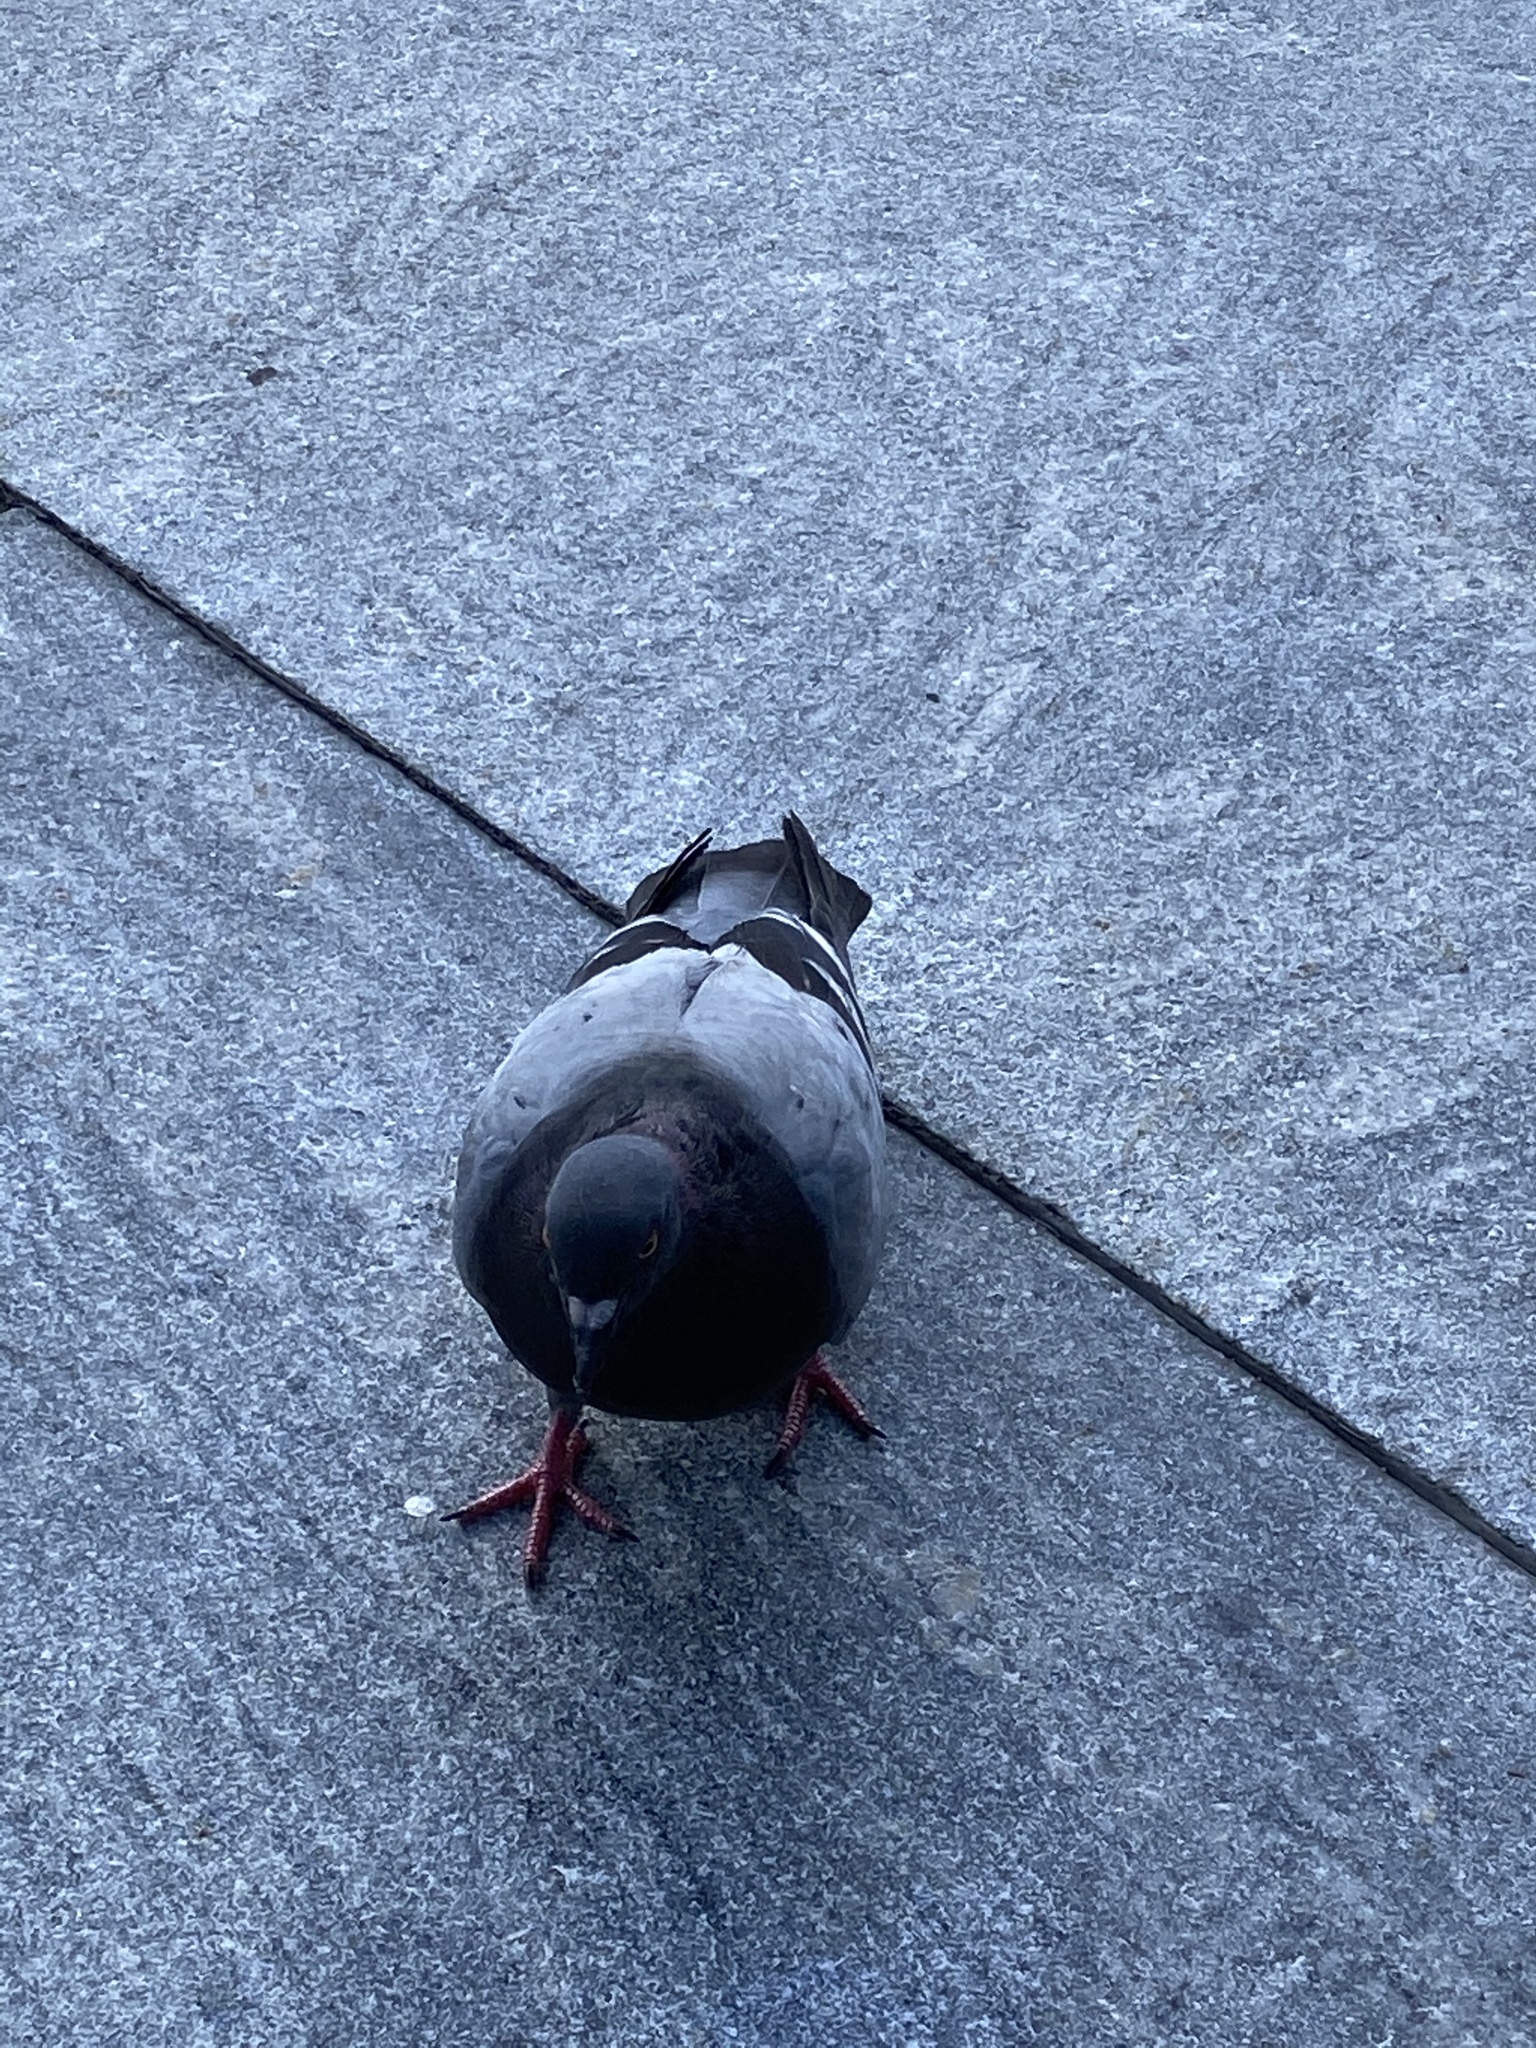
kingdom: Animalia
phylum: Chordata
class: Aves
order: Columbiformes
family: Columbidae
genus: Columba
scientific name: Columba livia
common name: Rock pigeon
